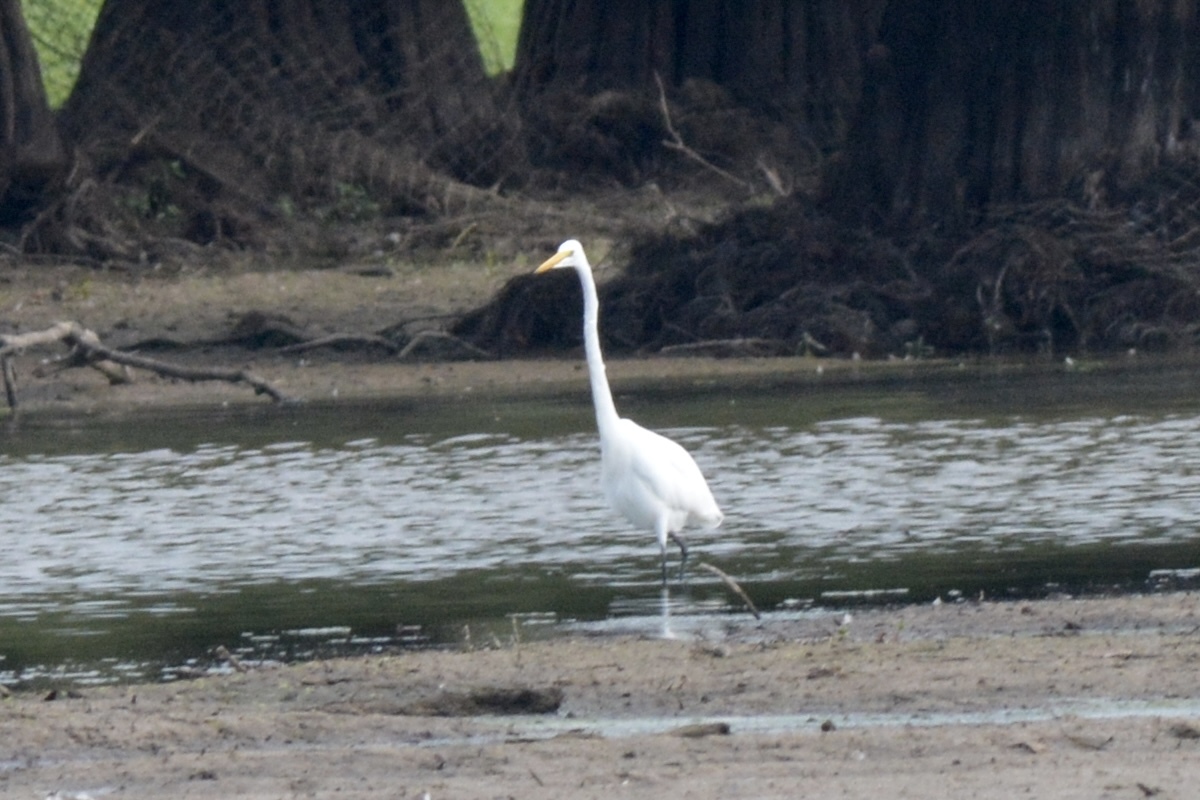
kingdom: Animalia
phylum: Chordata
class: Aves
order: Pelecaniformes
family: Ardeidae
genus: Ardea
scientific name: Ardea alba
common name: Great egret
